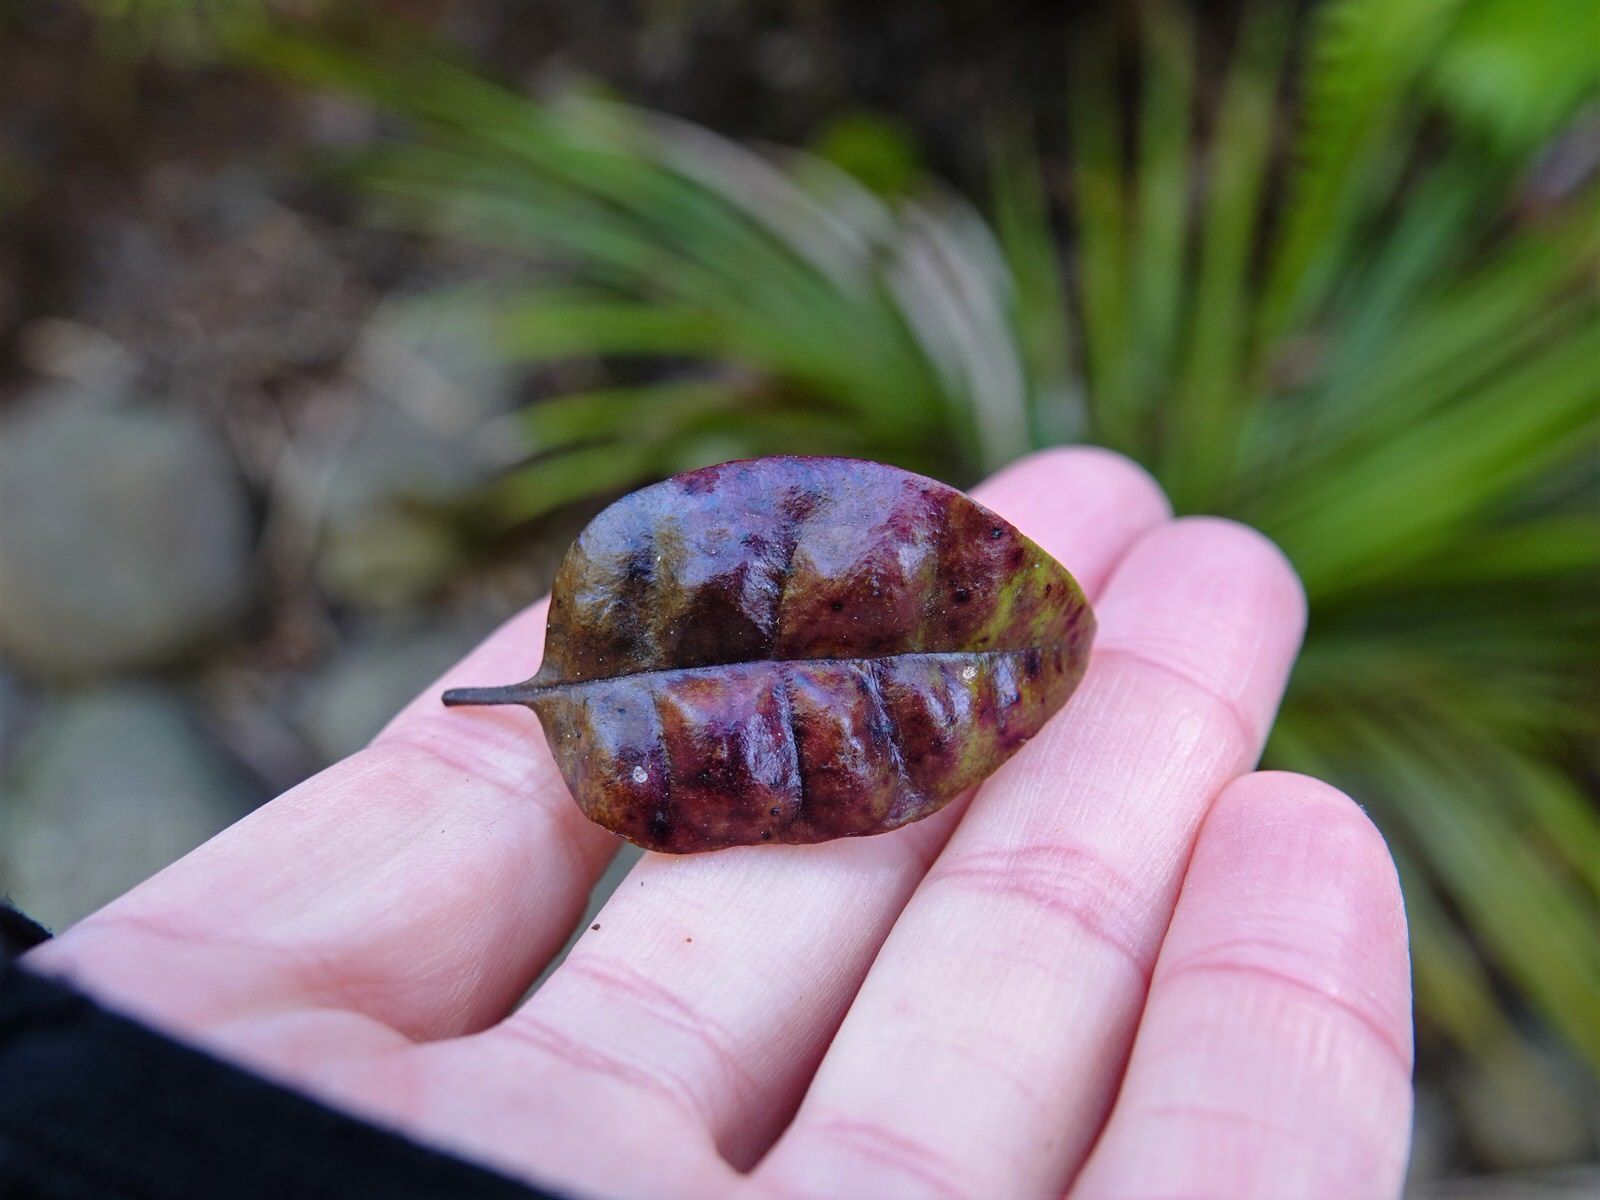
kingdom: Plantae
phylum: Tracheophyta
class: Magnoliopsida
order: Myrtales
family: Myrtaceae
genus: Lophomyrtus
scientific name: Lophomyrtus bullata
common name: Rama rama
